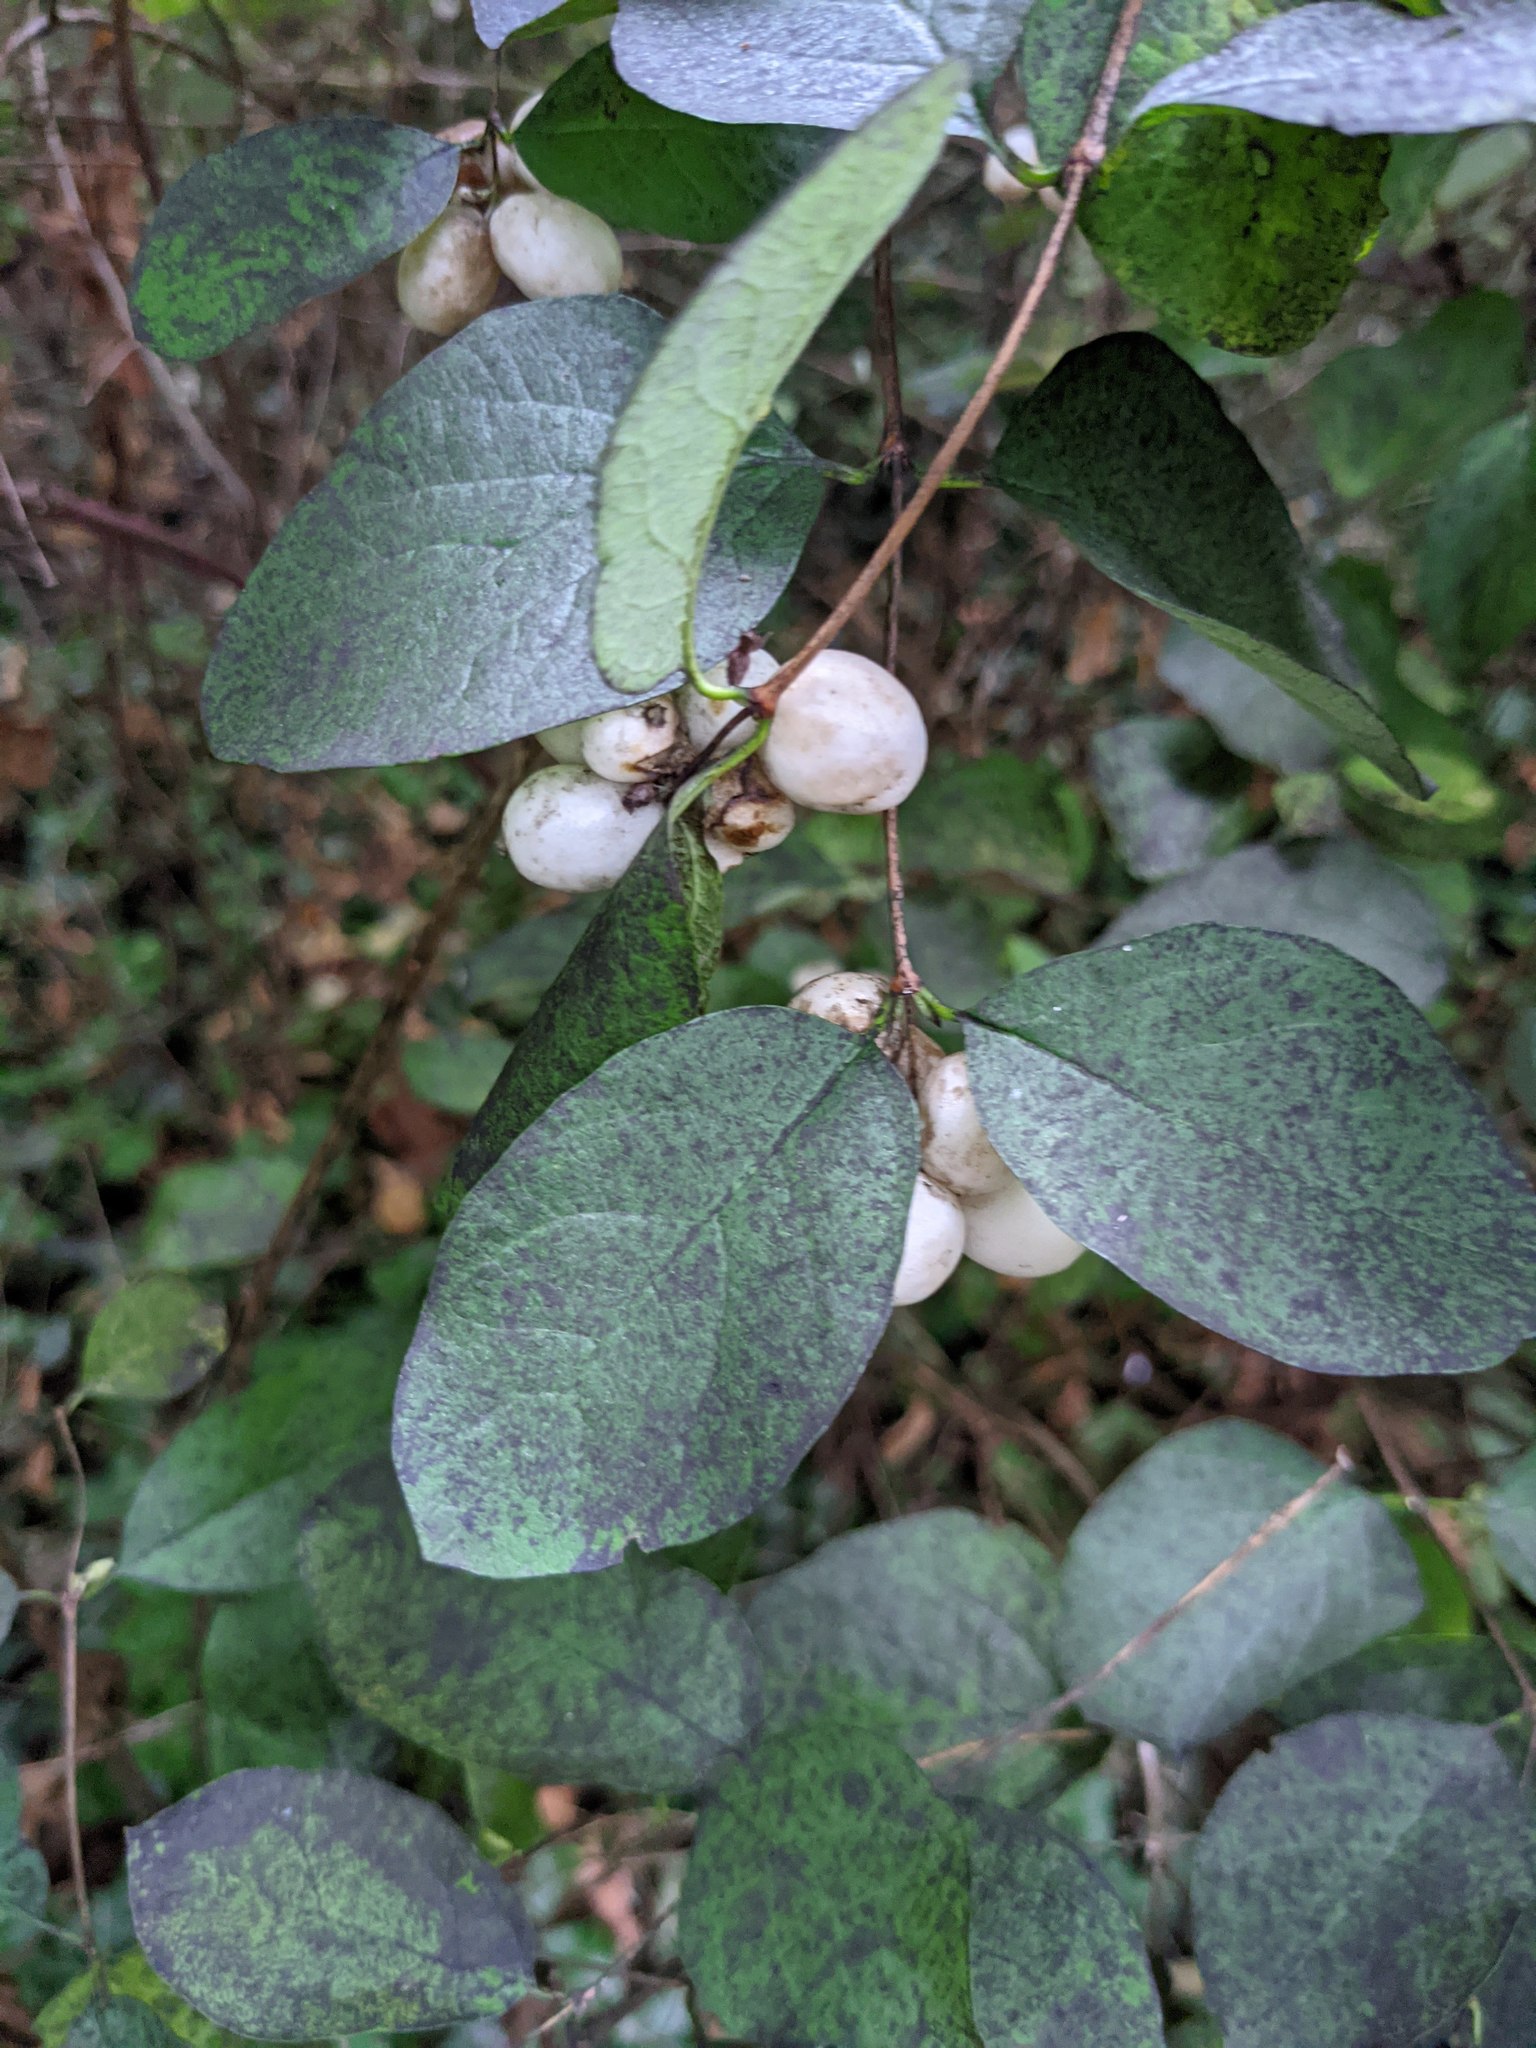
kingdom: Plantae
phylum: Tracheophyta
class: Magnoliopsida
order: Dipsacales
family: Caprifoliaceae
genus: Symphoricarpos
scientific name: Symphoricarpos albus
